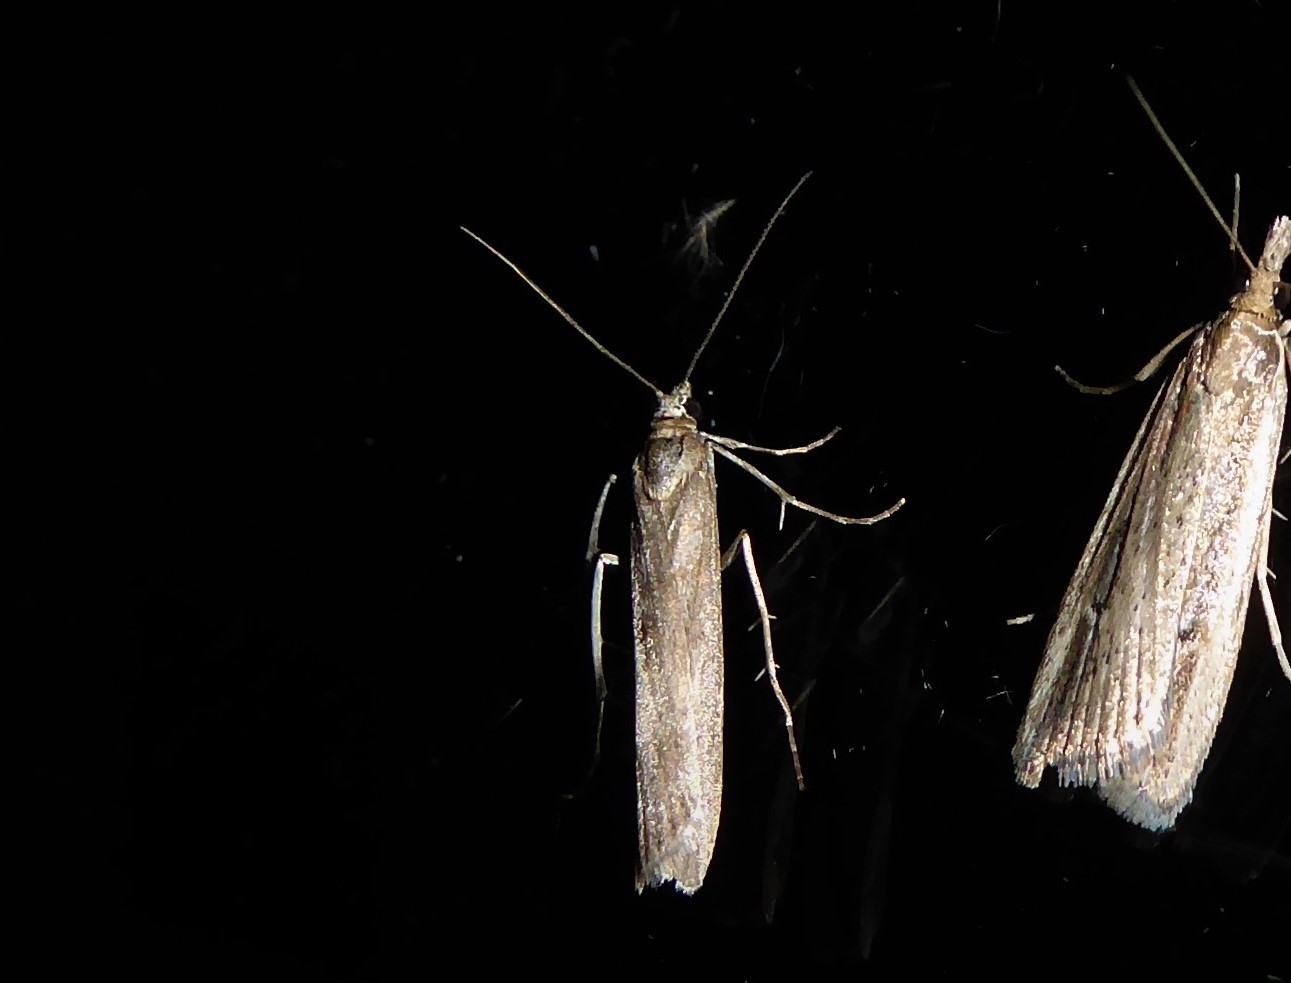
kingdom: Animalia
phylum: Arthropoda
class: Insecta
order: Lepidoptera
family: Crambidae
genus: Eudonia
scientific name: Eudonia leptalea
